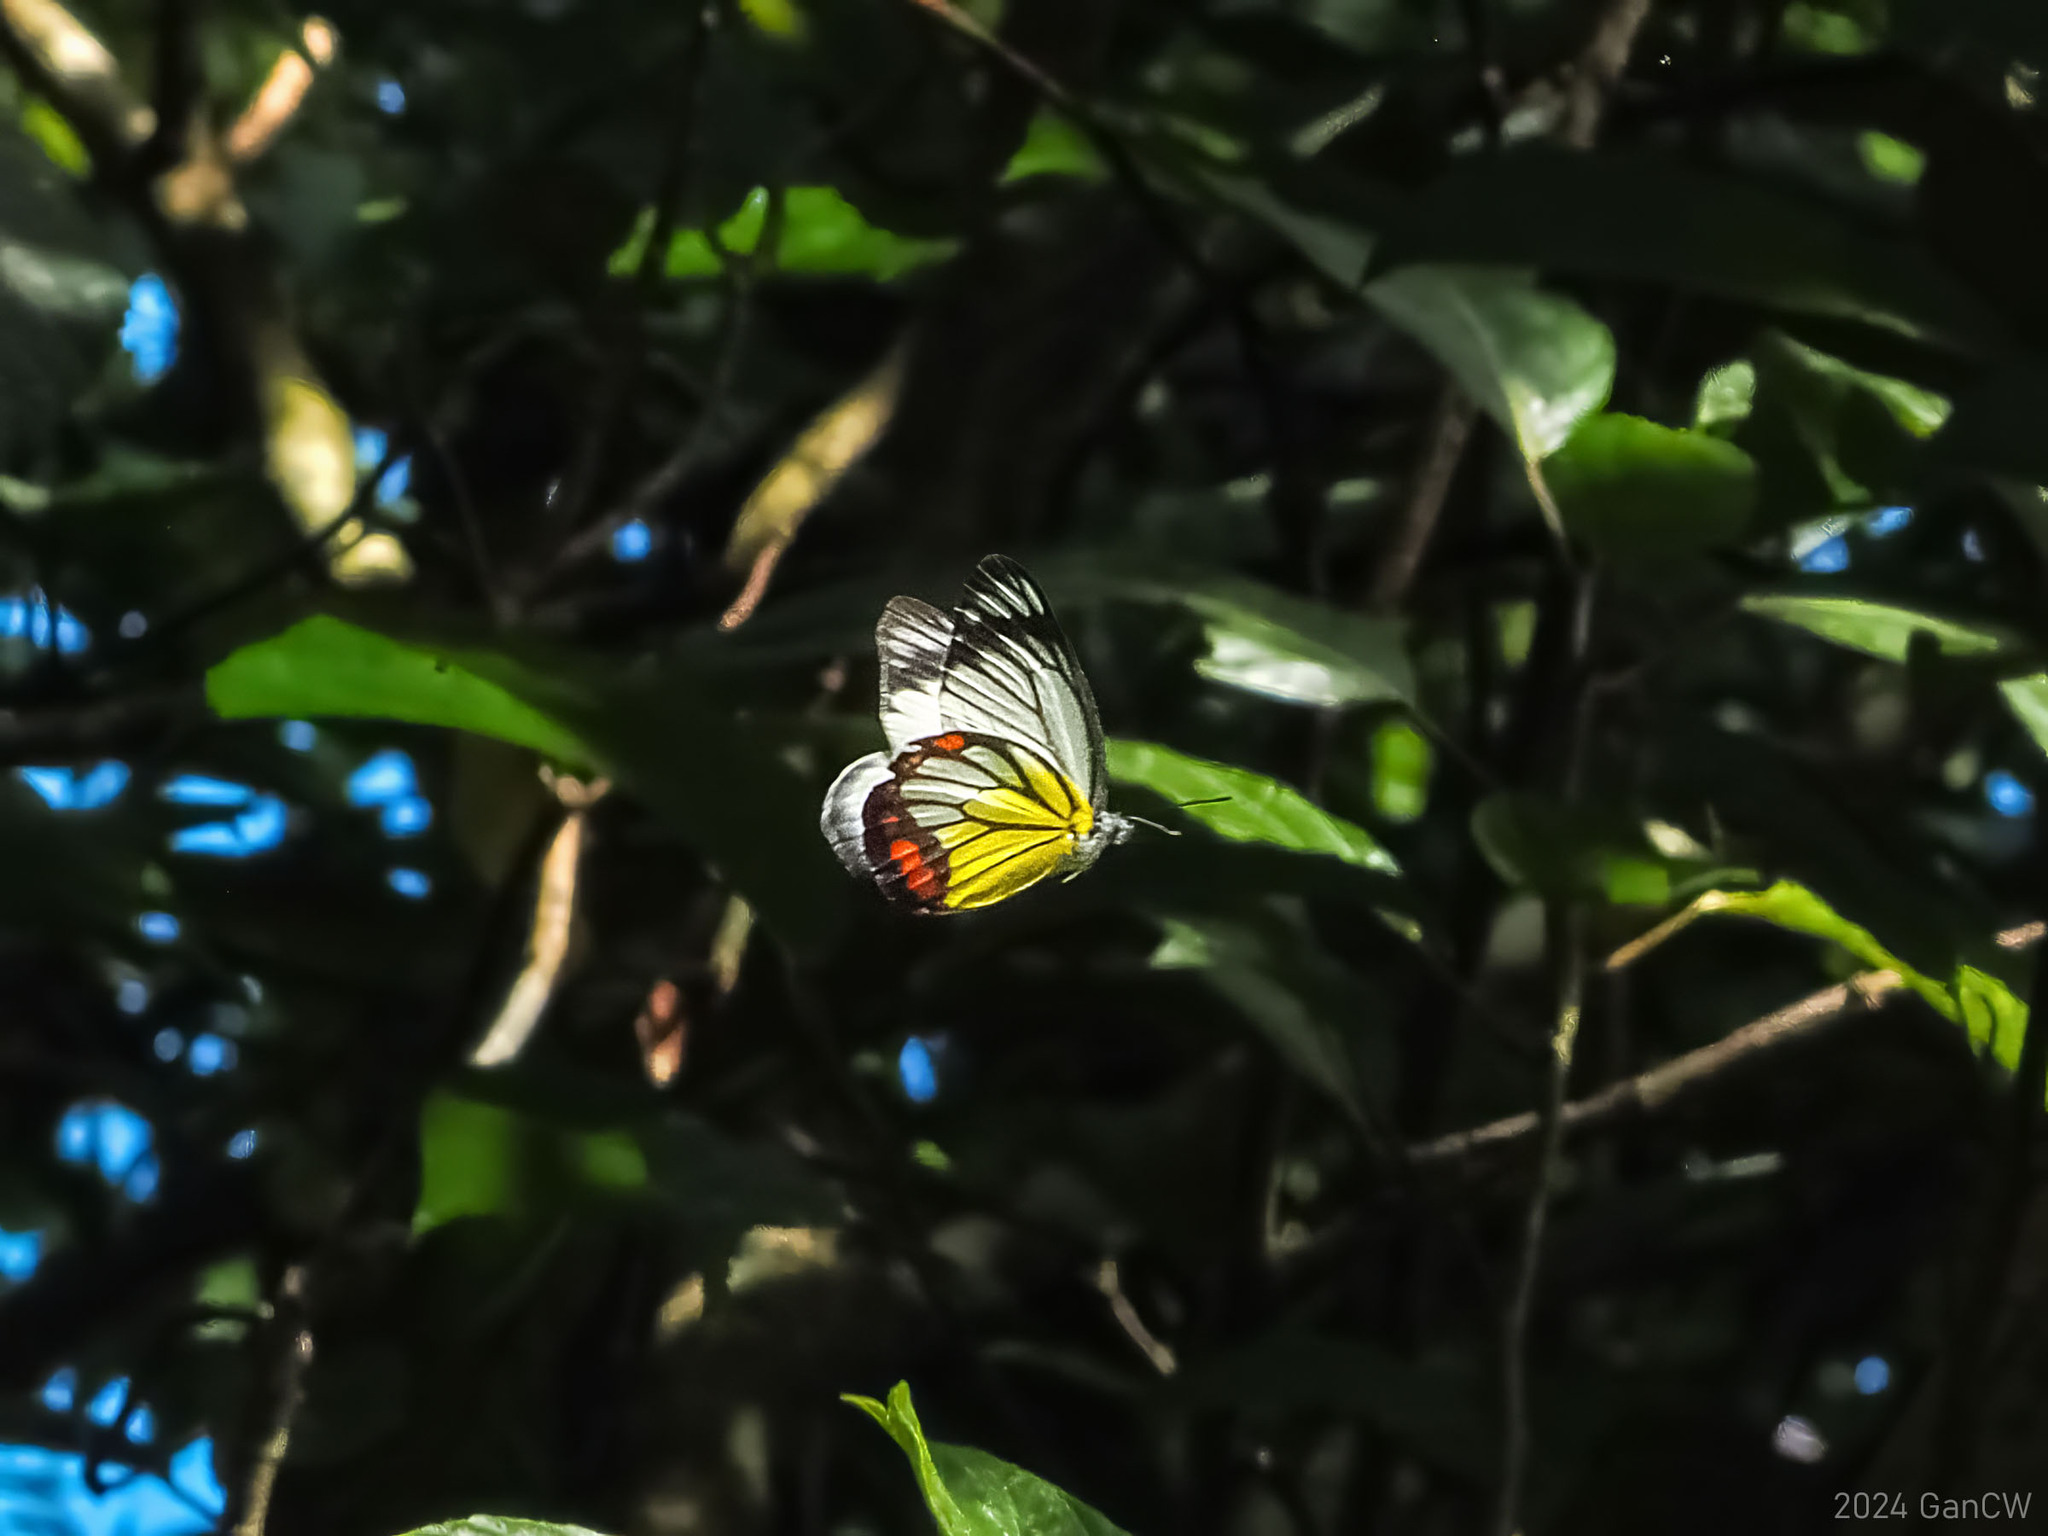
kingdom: Animalia
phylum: Arthropoda
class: Insecta
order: Lepidoptera
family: Pieridae
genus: Delias
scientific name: Delias hyparete
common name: Painted jezebel
